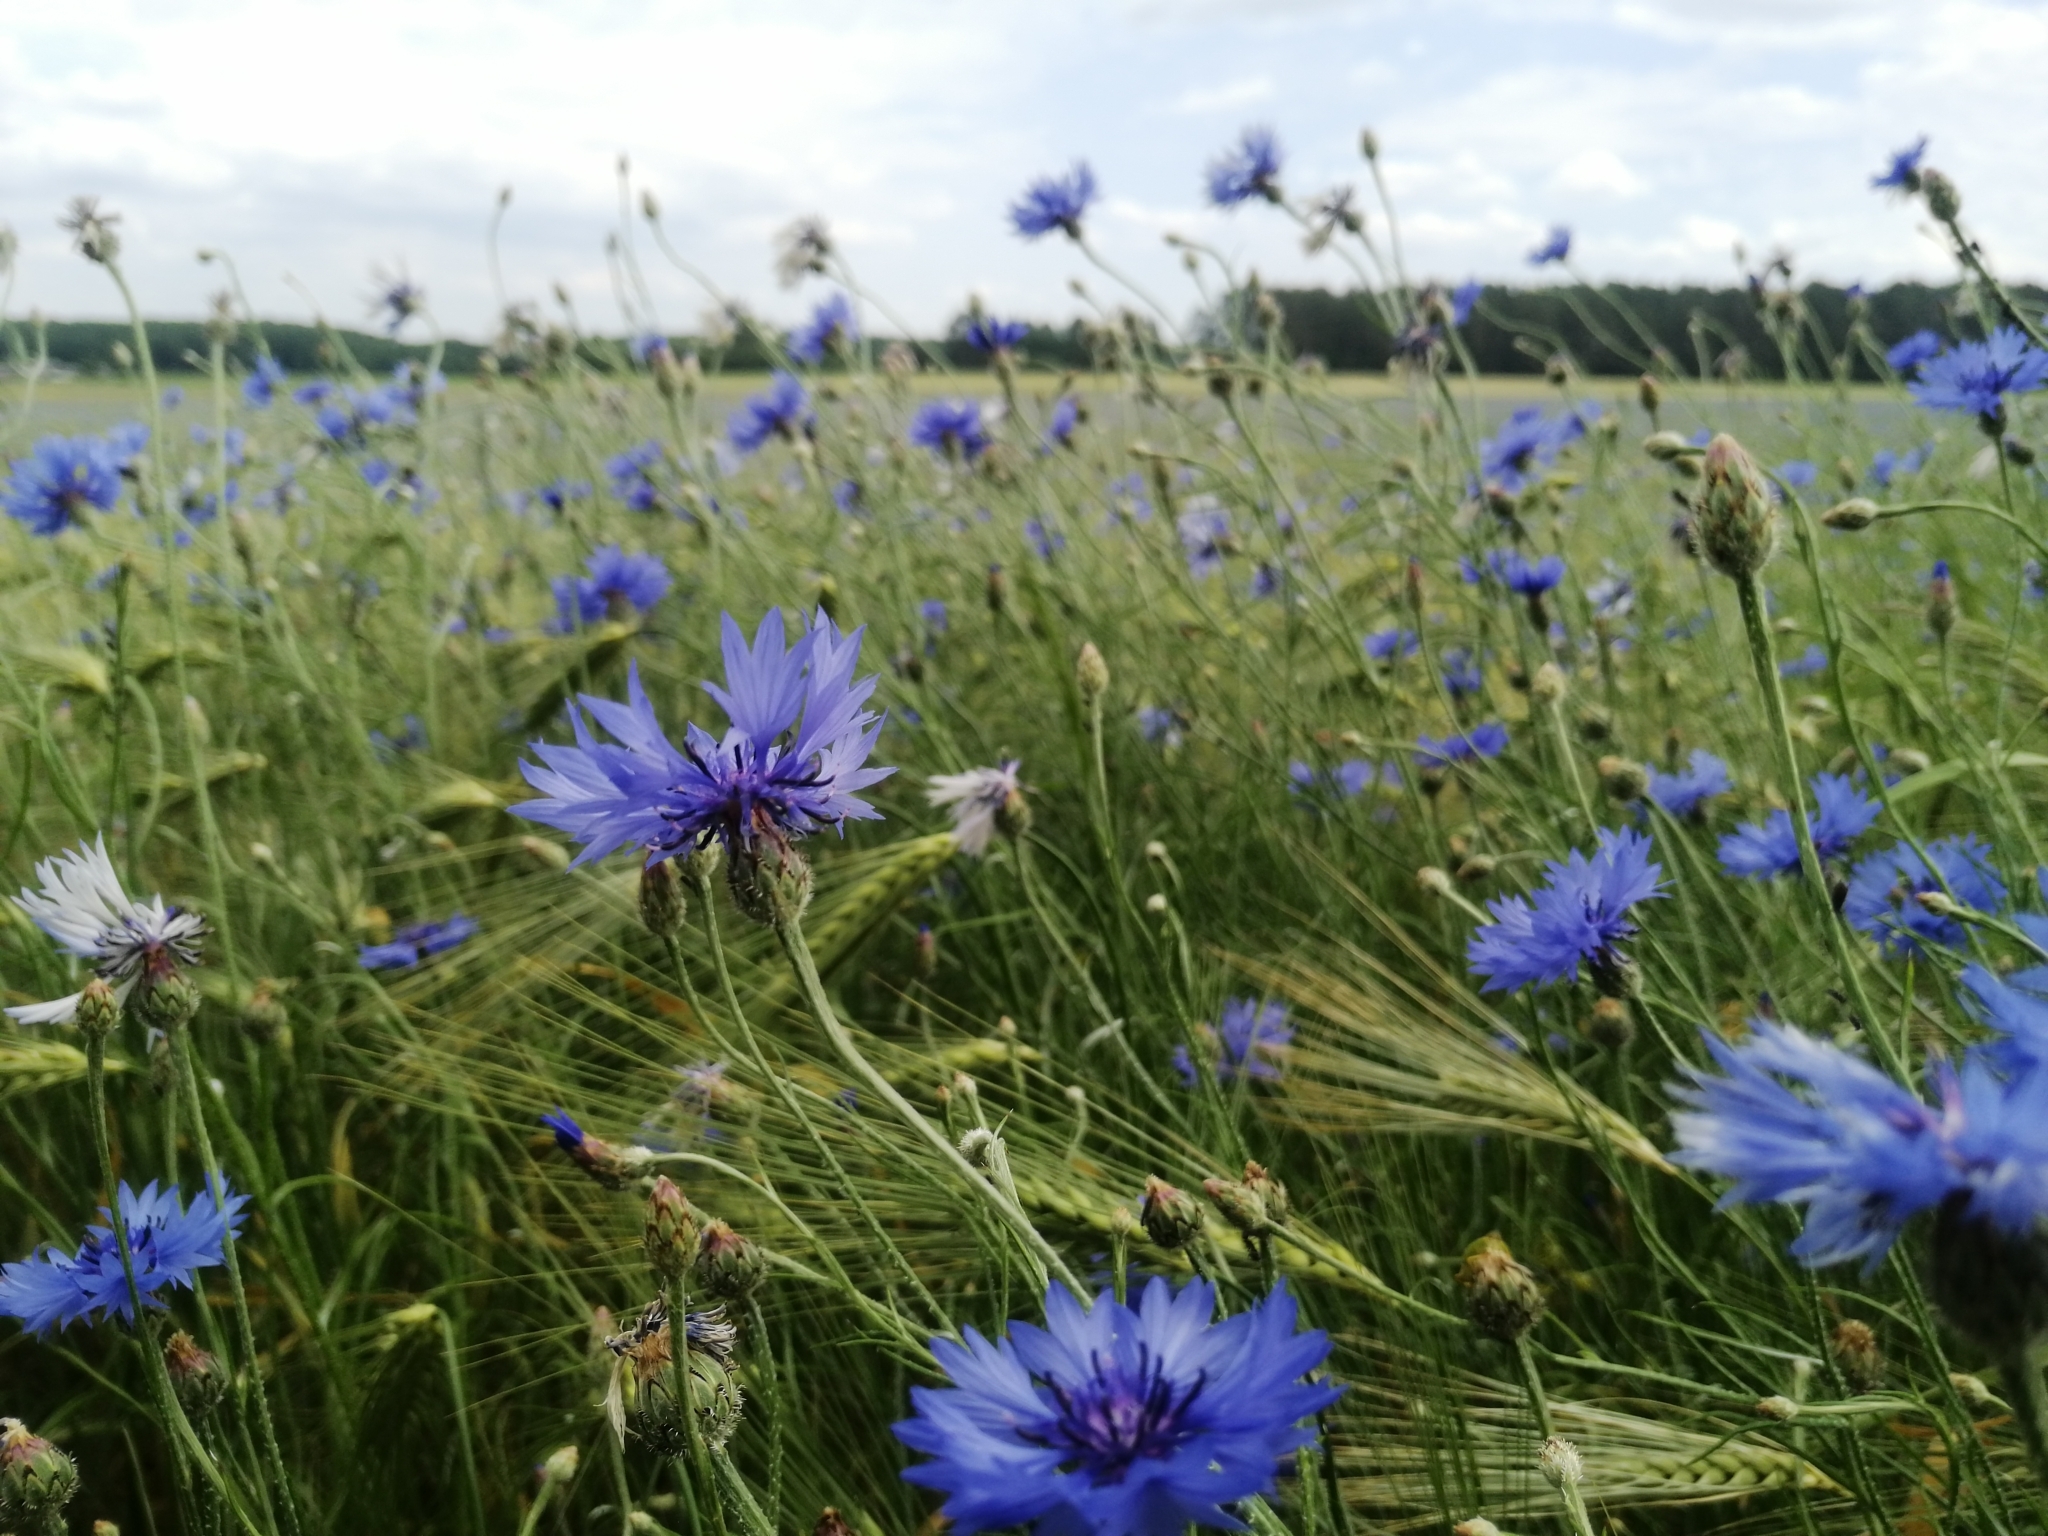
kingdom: Plantae
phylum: Tracheophyta
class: Magnoliopsida
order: Asterales
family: Asteraceae
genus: Centaurea
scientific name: Centaurea cyanus
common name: Cornflower
